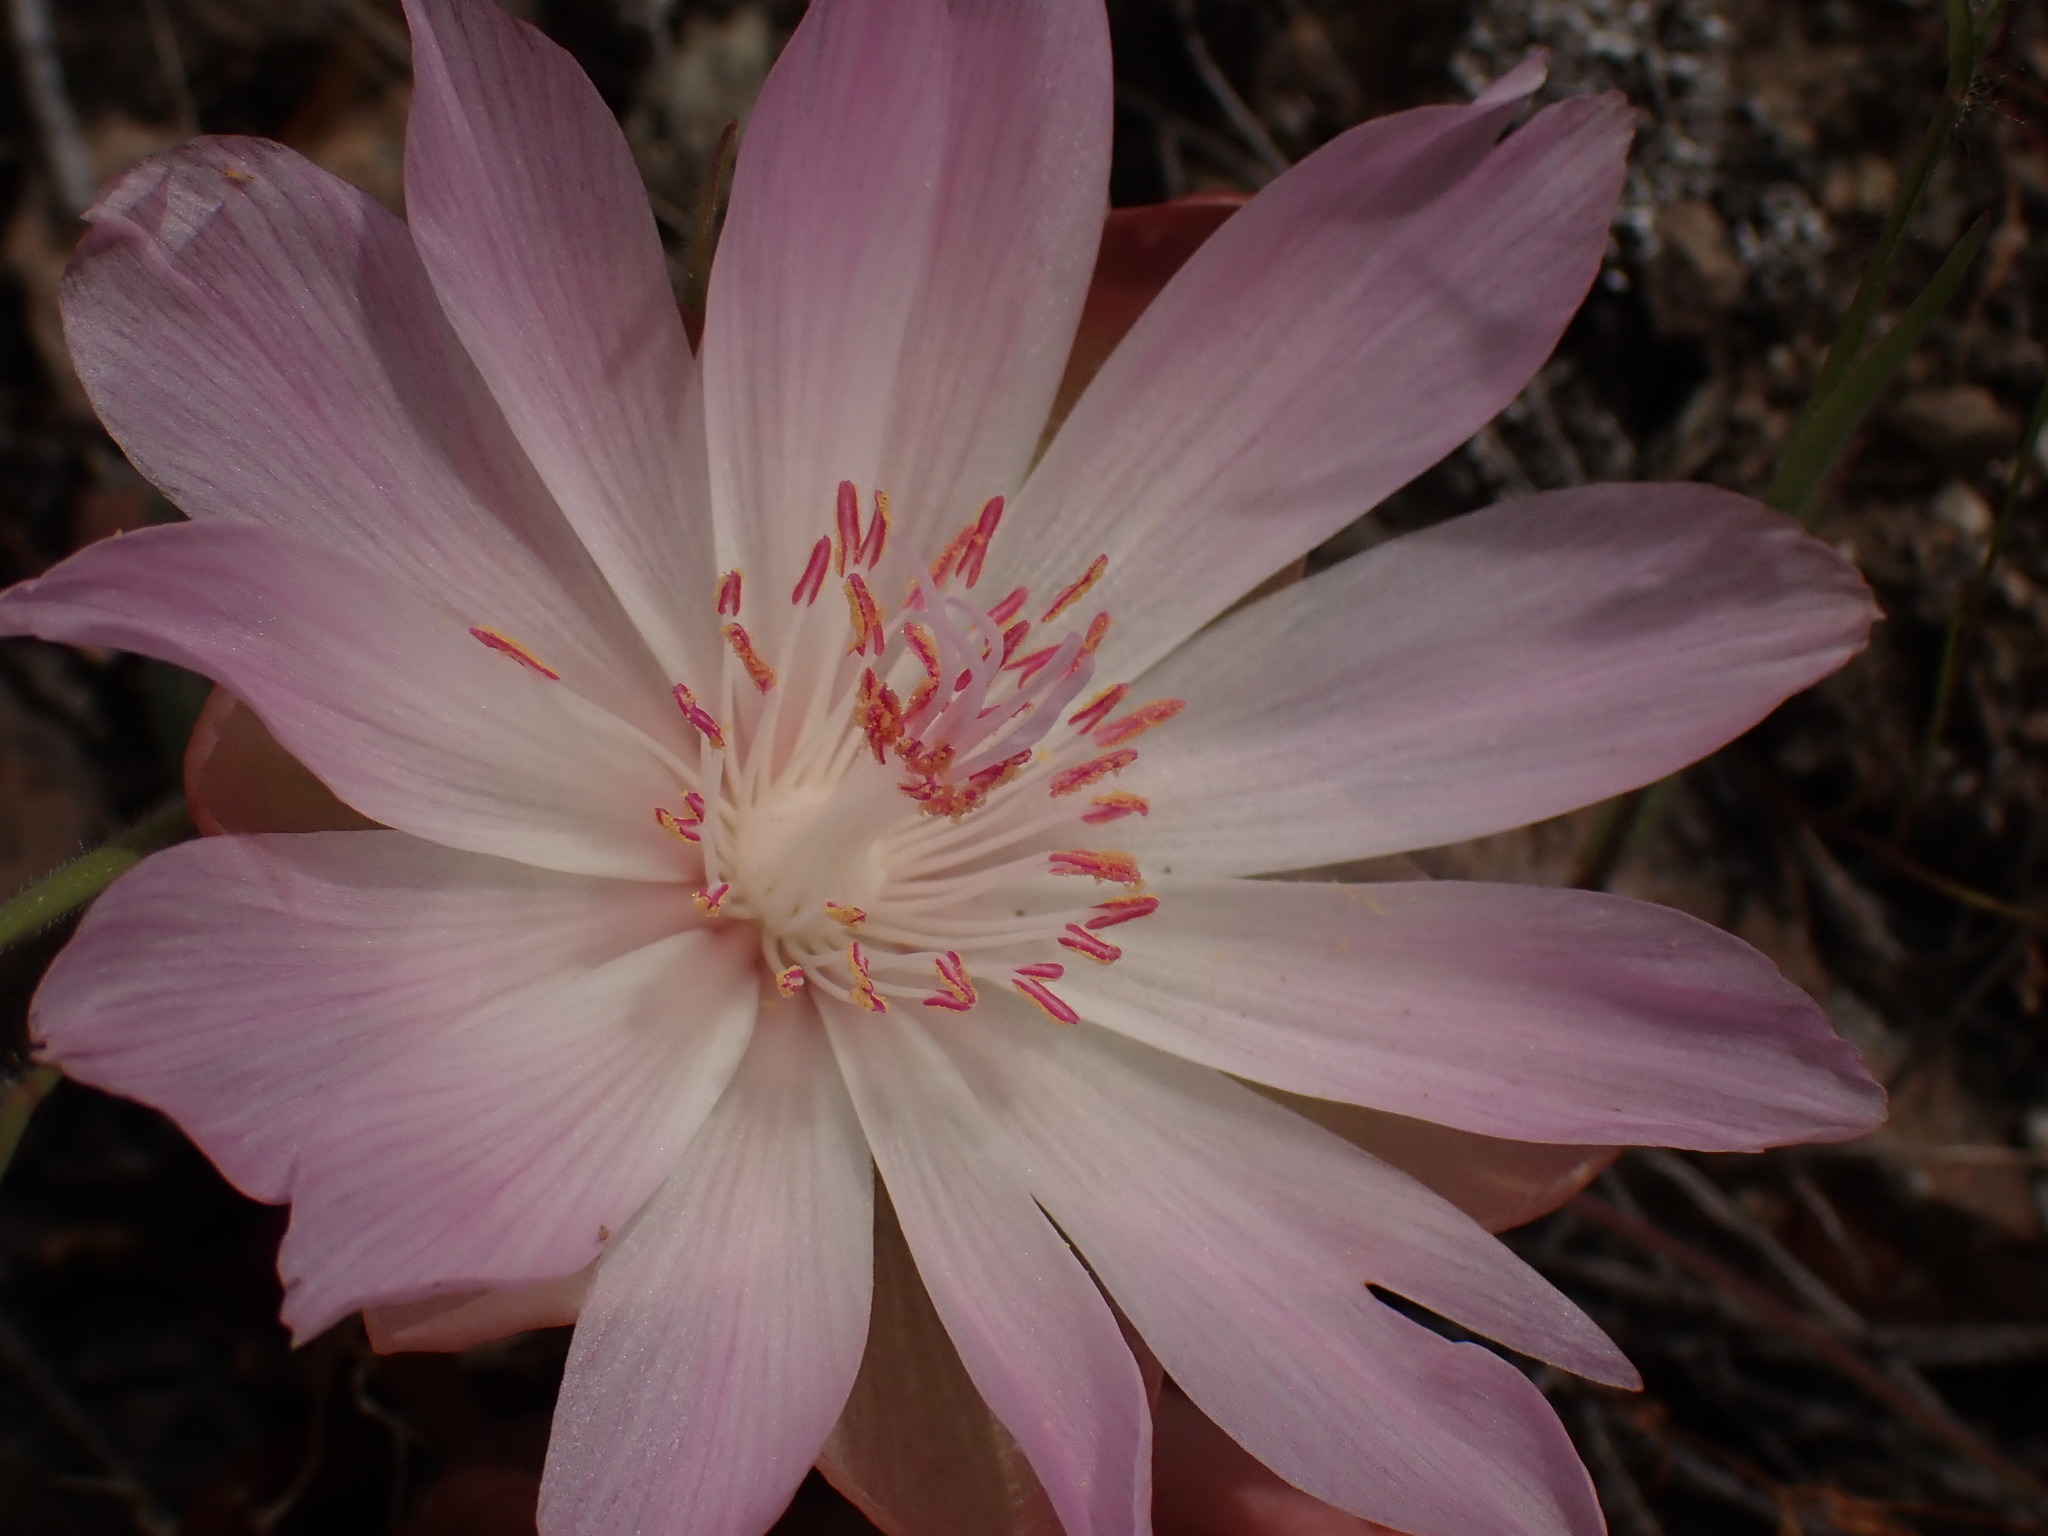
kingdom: Plantae
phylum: Tracheophyta
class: Magnoliopsida
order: Caryophyllales
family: Montiaceae
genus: Lewisia
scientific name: Lewisia rediviva
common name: Bitter-root
